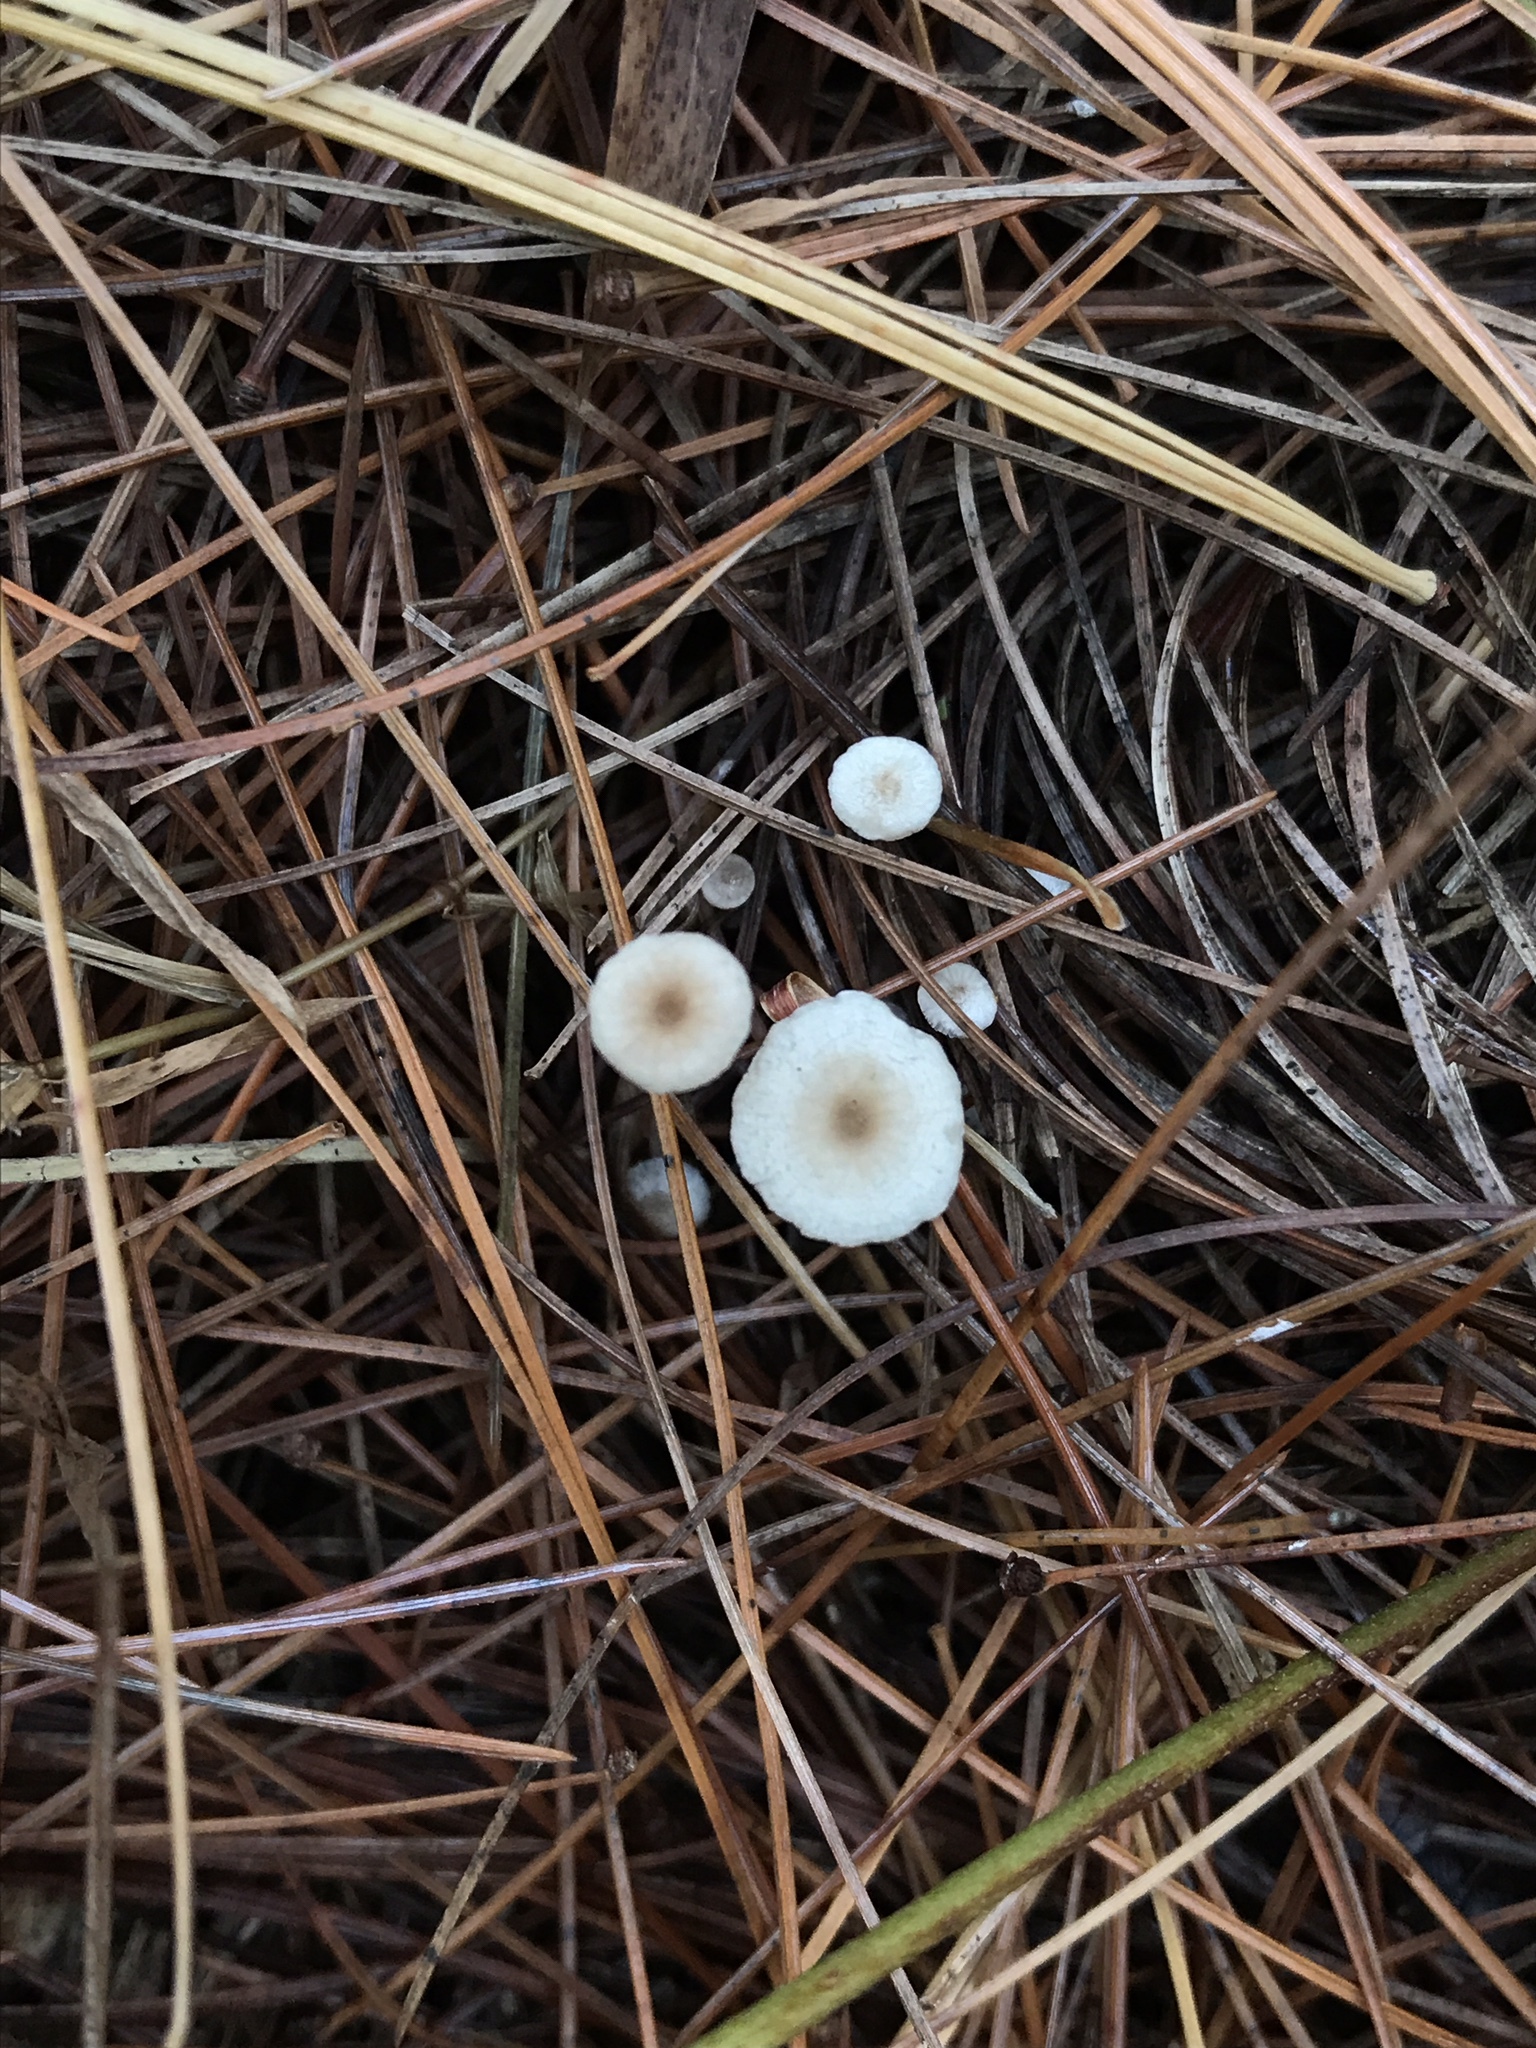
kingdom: Fungi
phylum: Basidiomycota
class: Agaricomycetes
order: Agaricales
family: Tricholomataceae
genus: Collybia
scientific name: Collybia cirrhata
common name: Piggyback shanklet
